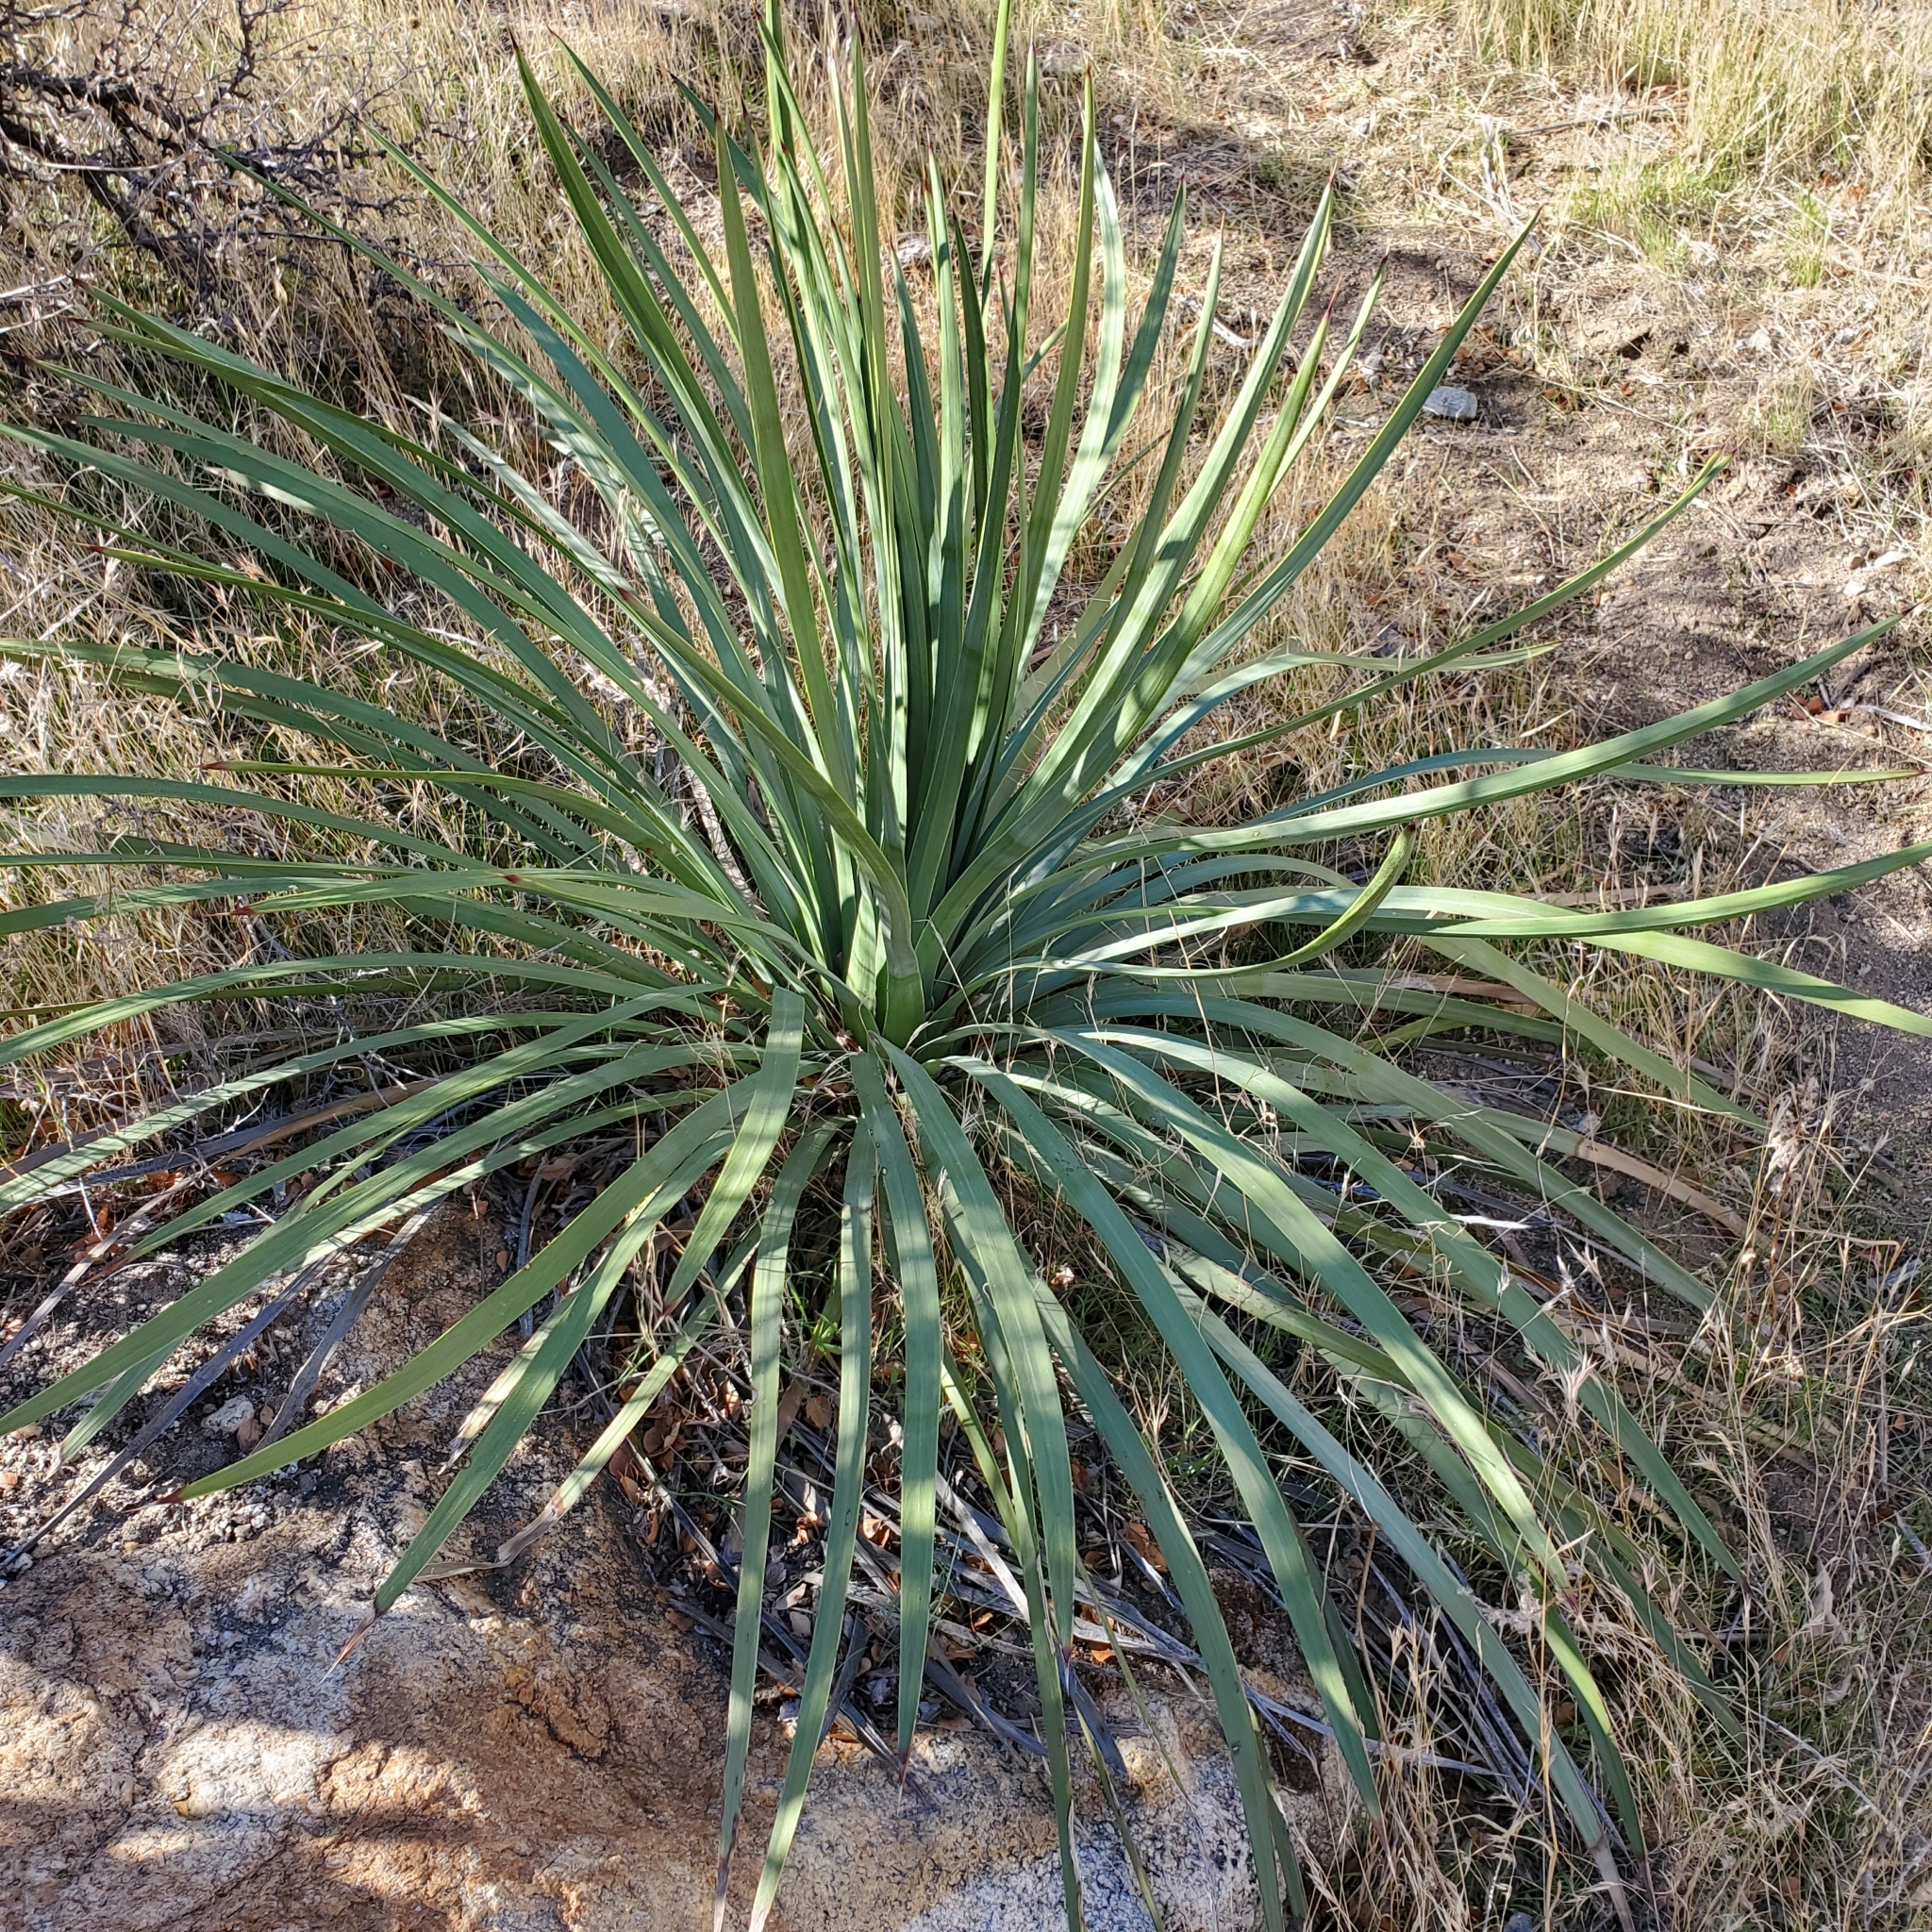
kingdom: Plantae
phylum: Tracheophyta
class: Liliopsida
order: Asparagales
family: Asparagaceae
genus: Hesperoyucca
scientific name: Hesperoyucca whipplei
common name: Our lord's-candle
